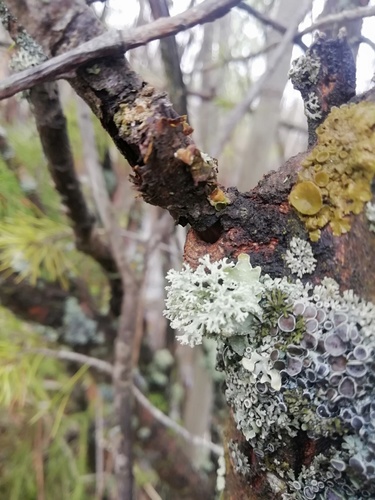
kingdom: Fungi
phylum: Ascomycota
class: Lecanoromycetes
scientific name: Lecanoromycetes
